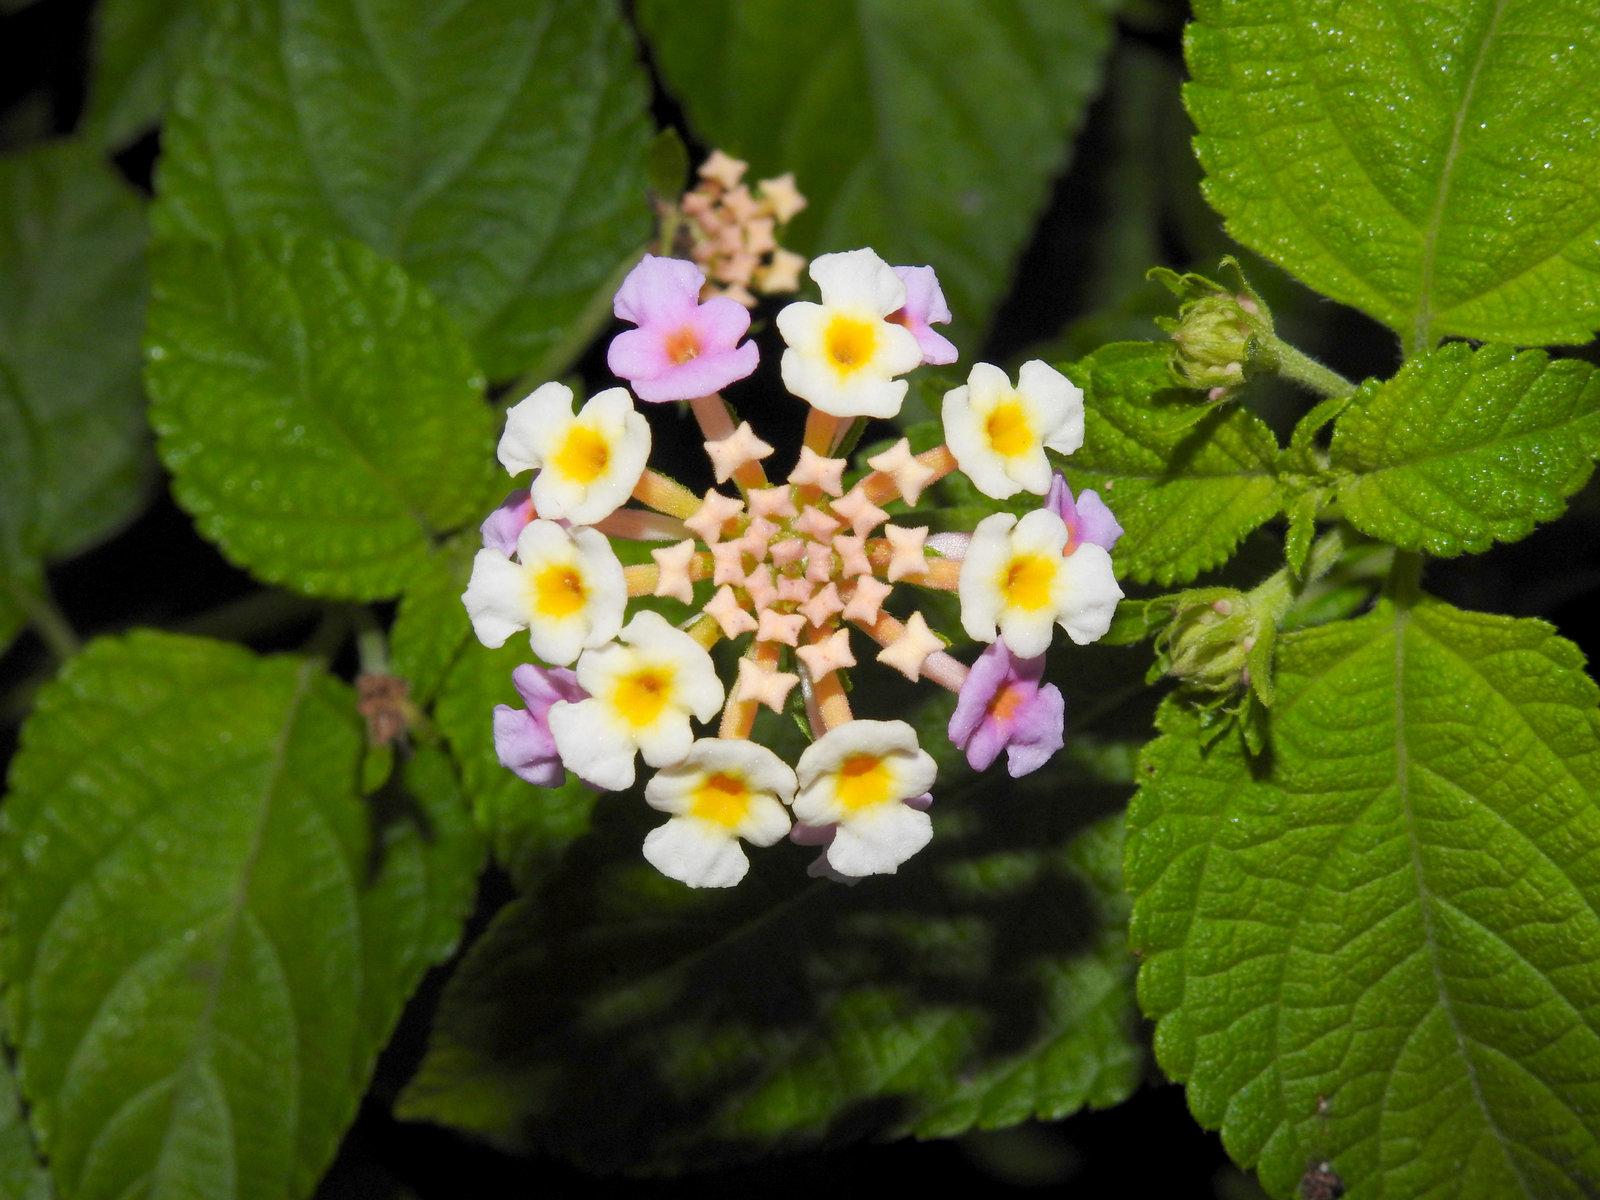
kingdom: Plantae
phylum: Tracheophyta
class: Magnoliopsida
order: Lamiales
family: Verbenaceae
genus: Lantana
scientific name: Lantana camara
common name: Lantana
